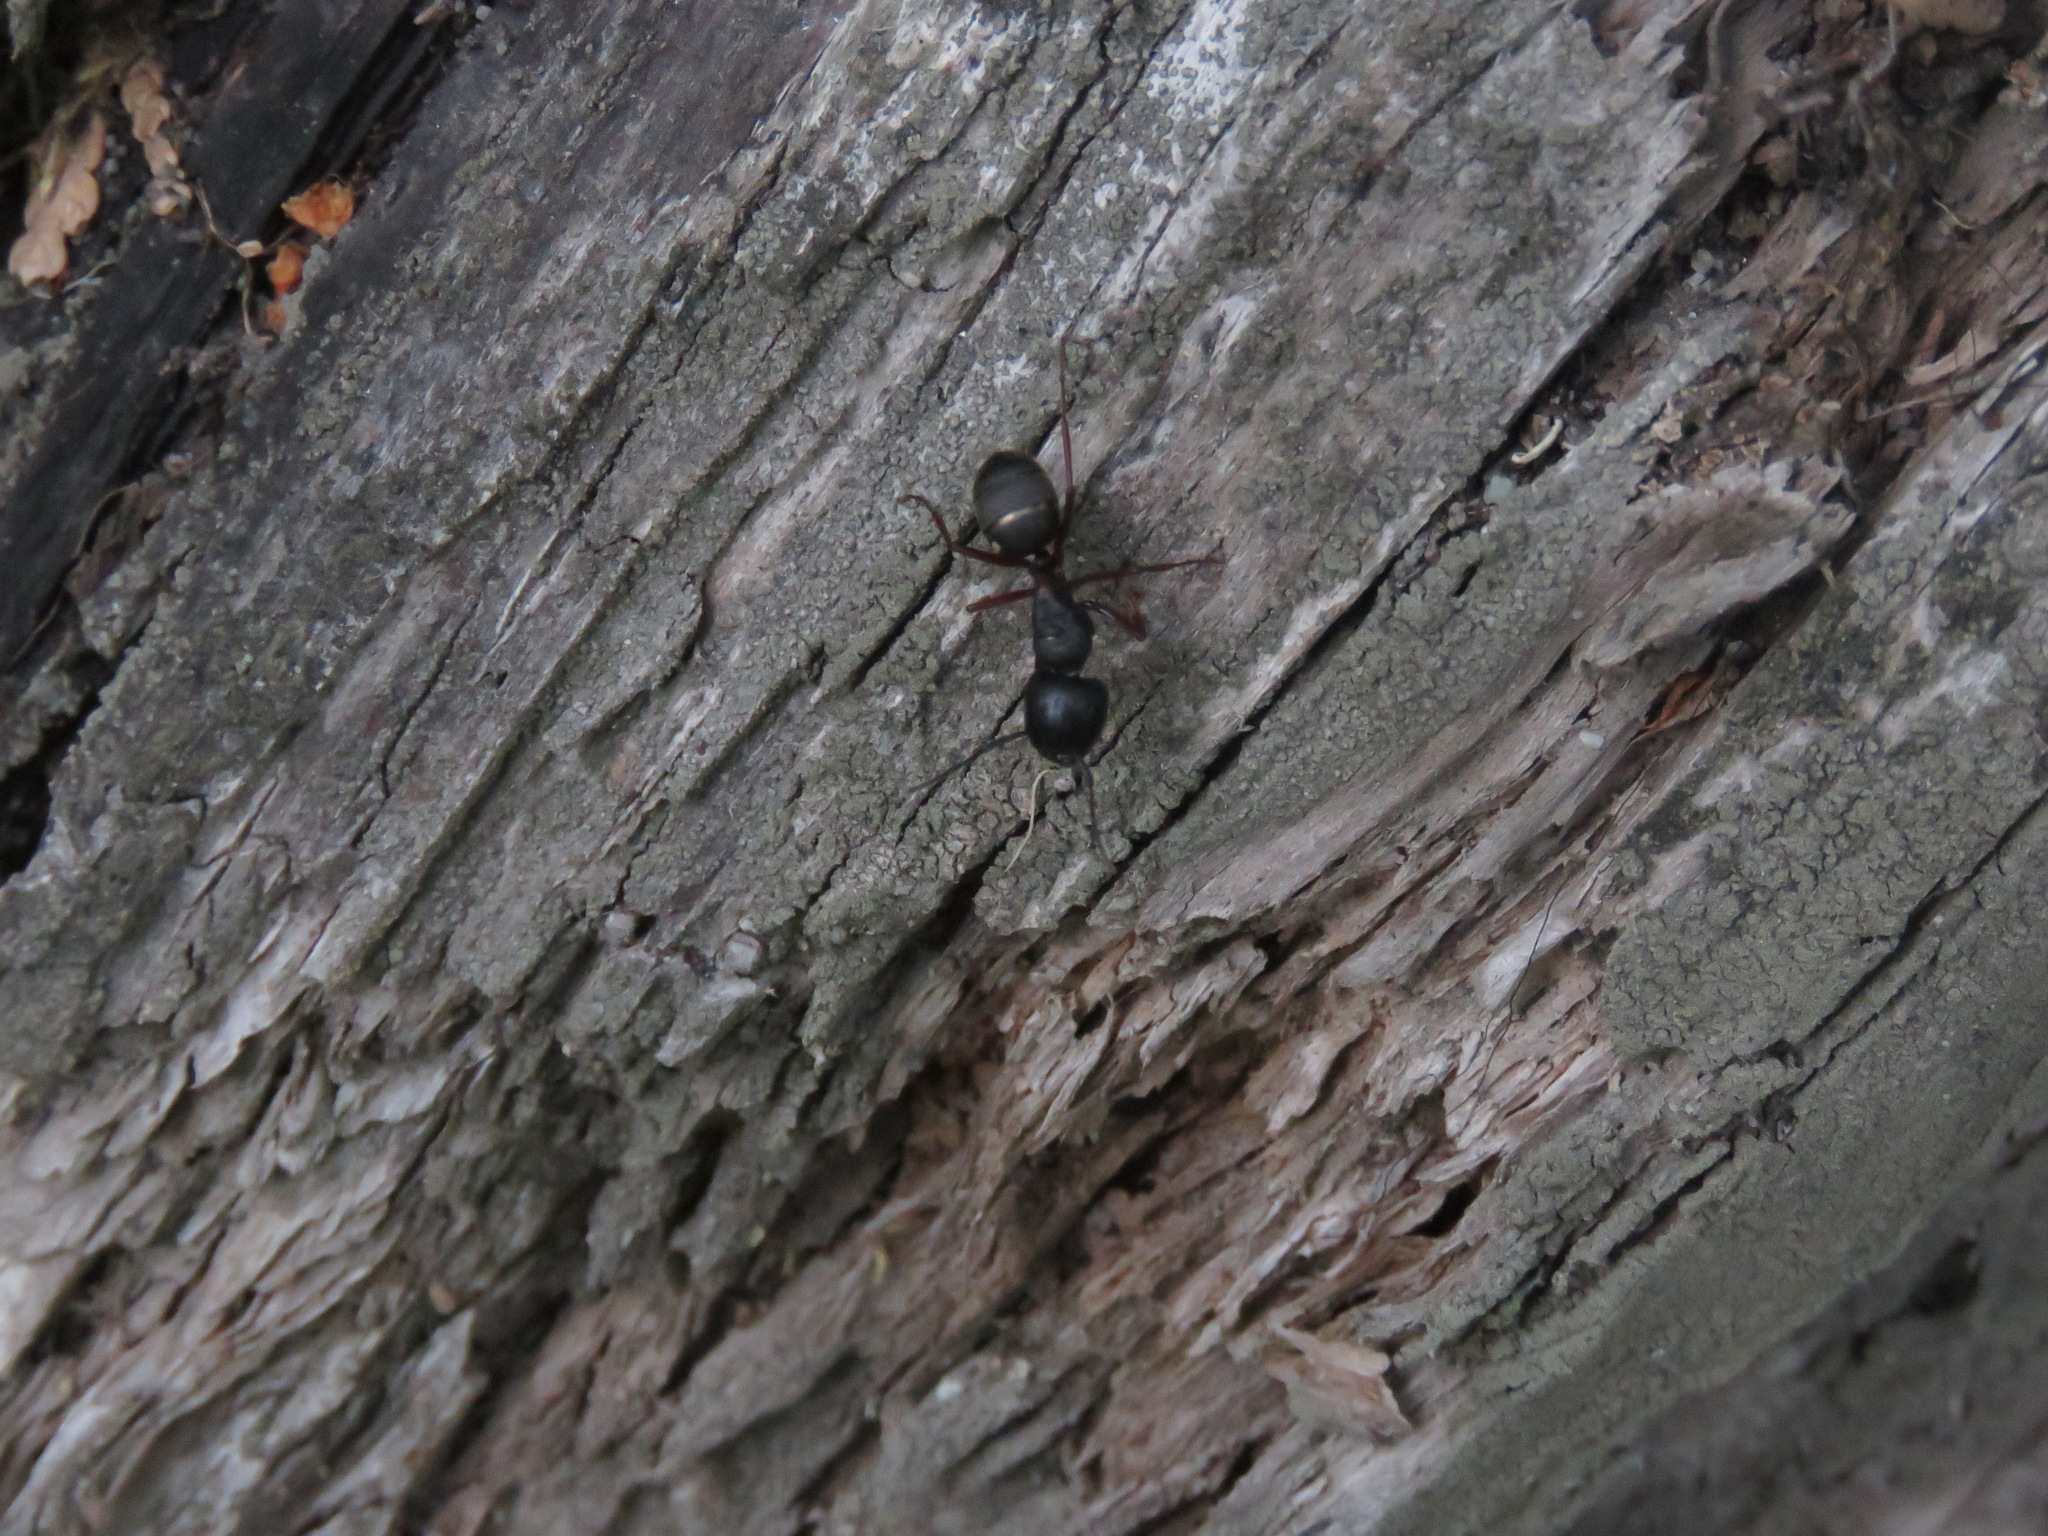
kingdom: Animalia
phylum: Arthropoda
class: Insecta
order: Hymenoptera
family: Formicidae
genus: Camponotus
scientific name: Camponotus herculeanus
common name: Hercules ant
